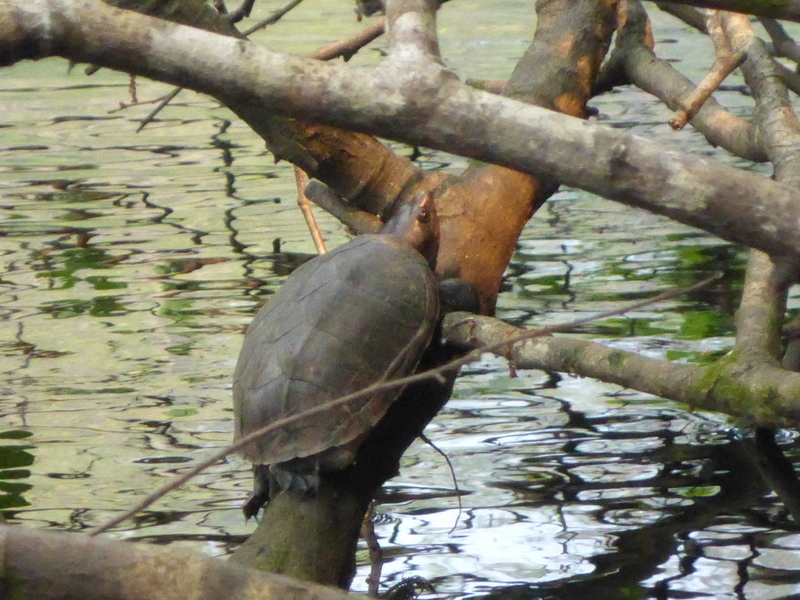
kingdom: Animalia
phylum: Chordata
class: Testudines
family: Kinosternidae
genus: Sternotherus
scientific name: Sternotherus minor
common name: Loggerhead musk turtle
